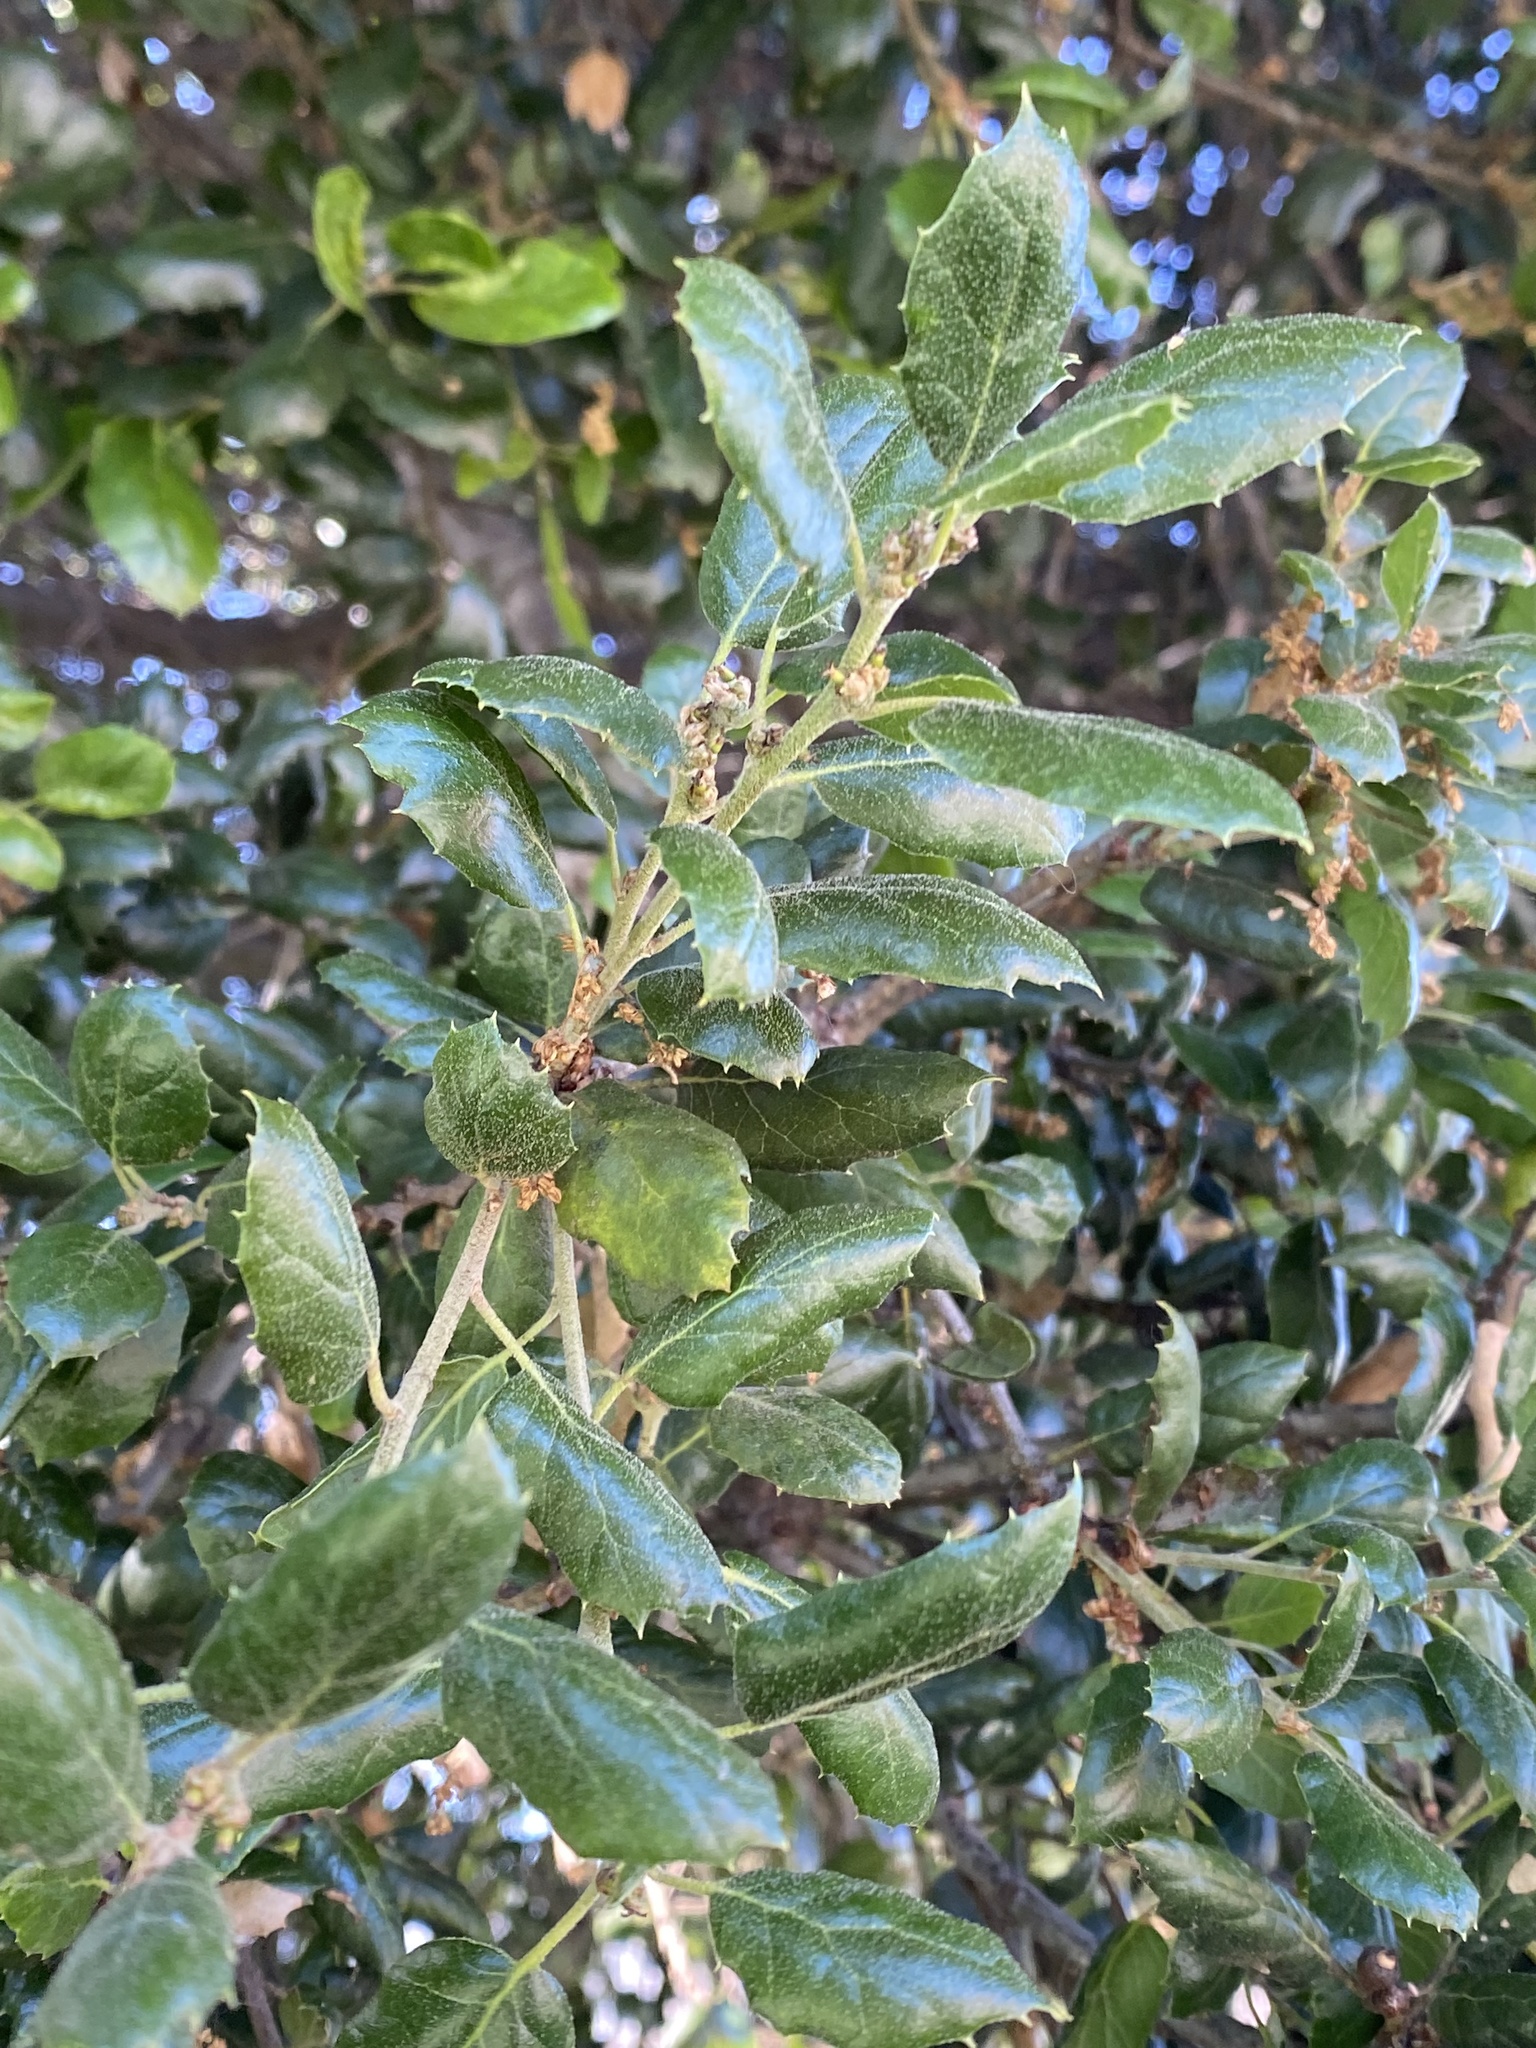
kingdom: Plantae
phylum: Tracheophyta
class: Magnoliopsida
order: Fagales
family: Fagaceae
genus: Quercus
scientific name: Quercus agrifolia
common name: California live oak
